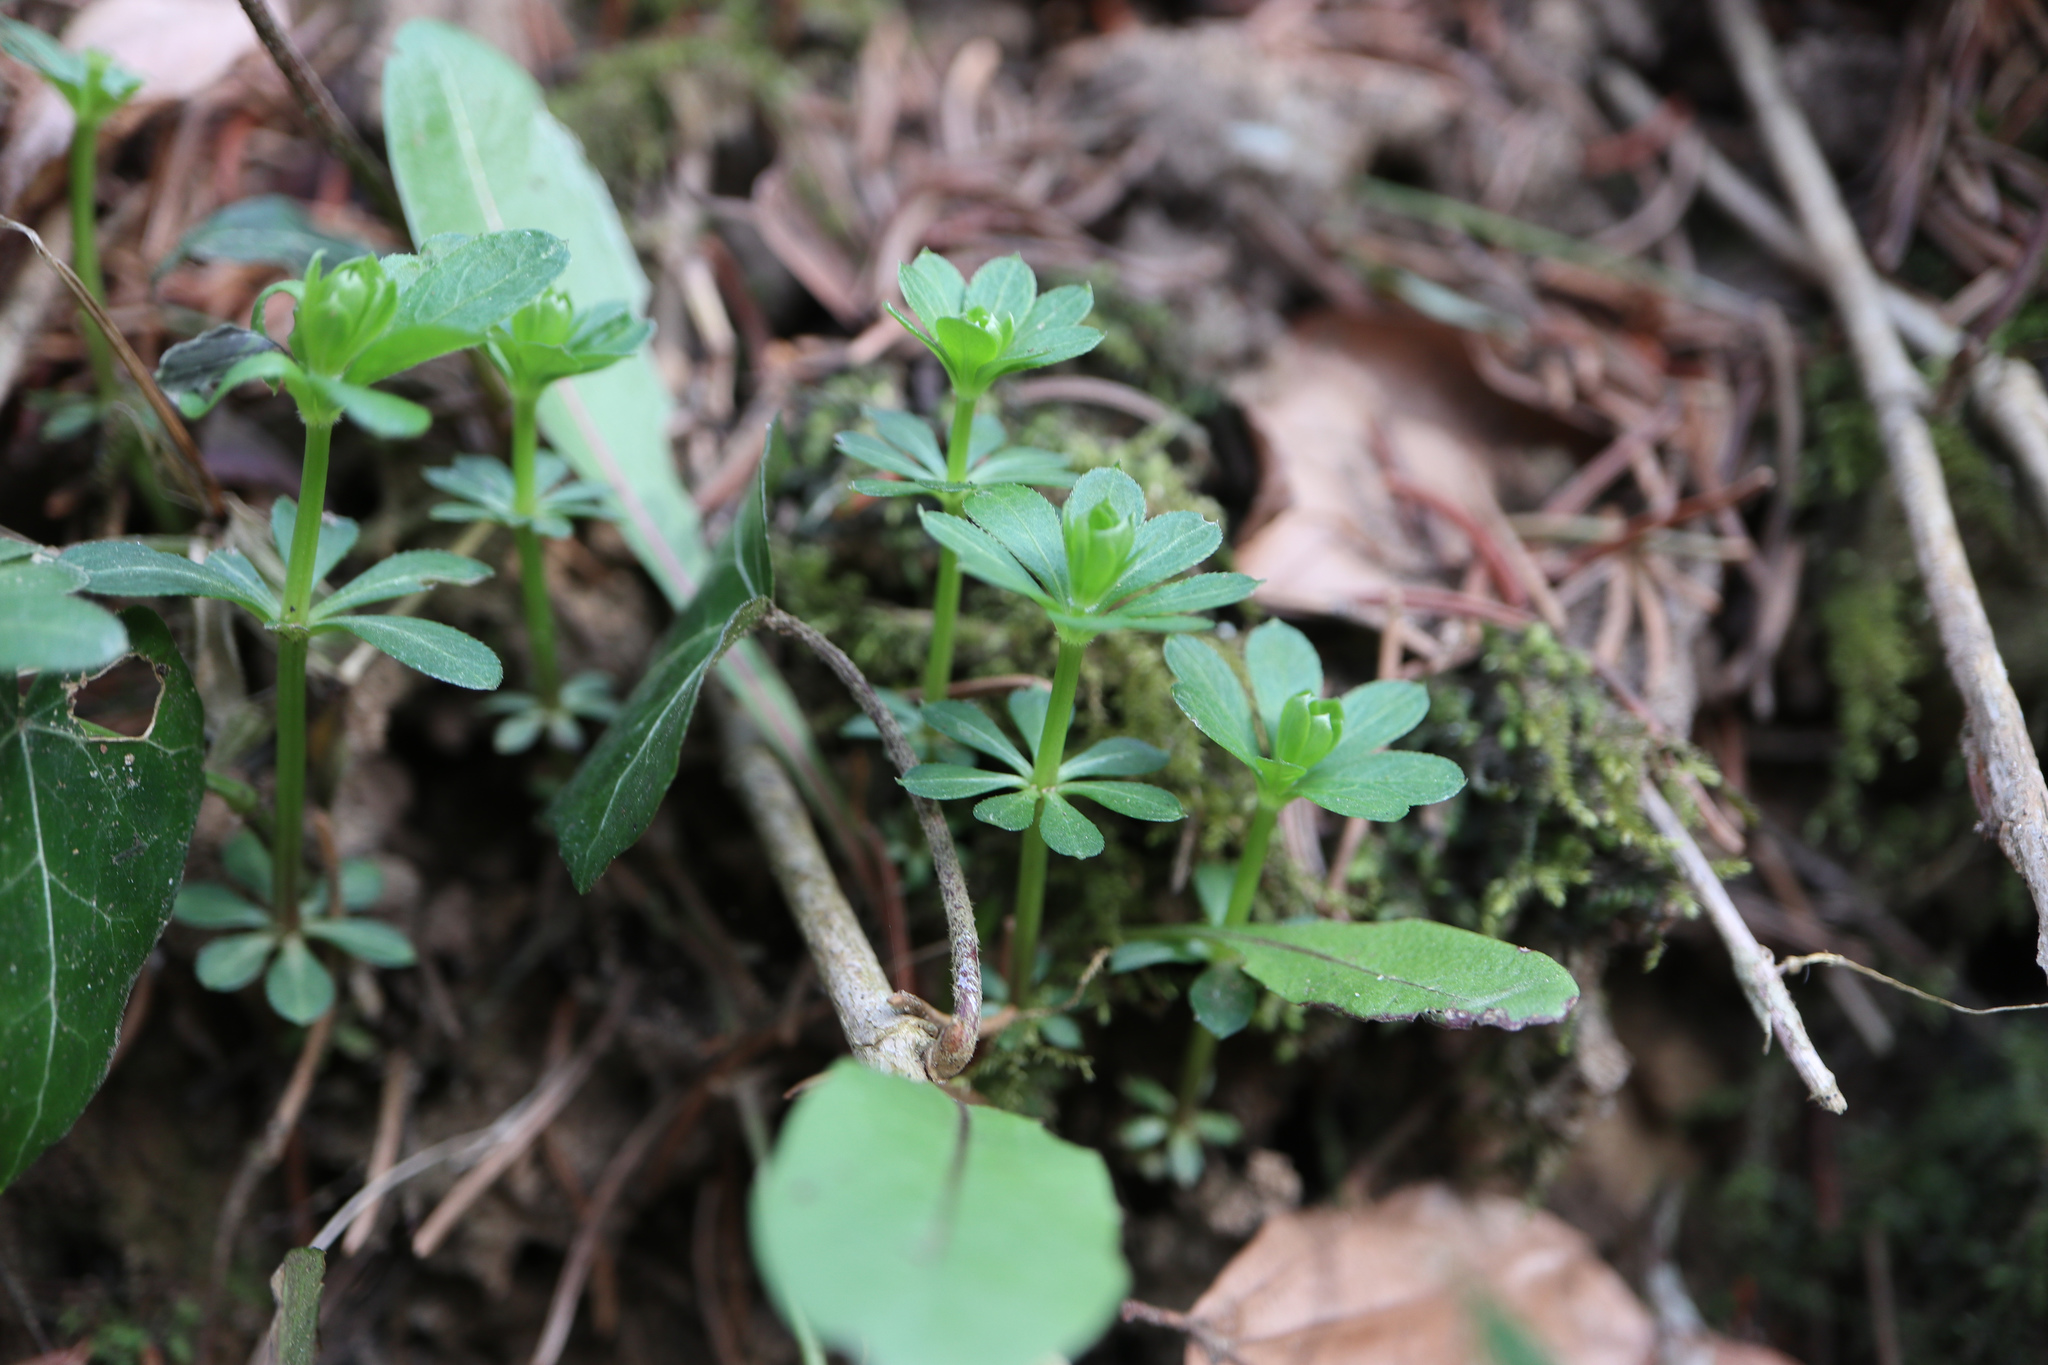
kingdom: Plantae
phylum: Tracheophyta
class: Magnoliopsida
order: Gentianales
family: Rubiaceae
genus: Galium
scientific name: Galium odoratum
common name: Sweet woodruff
